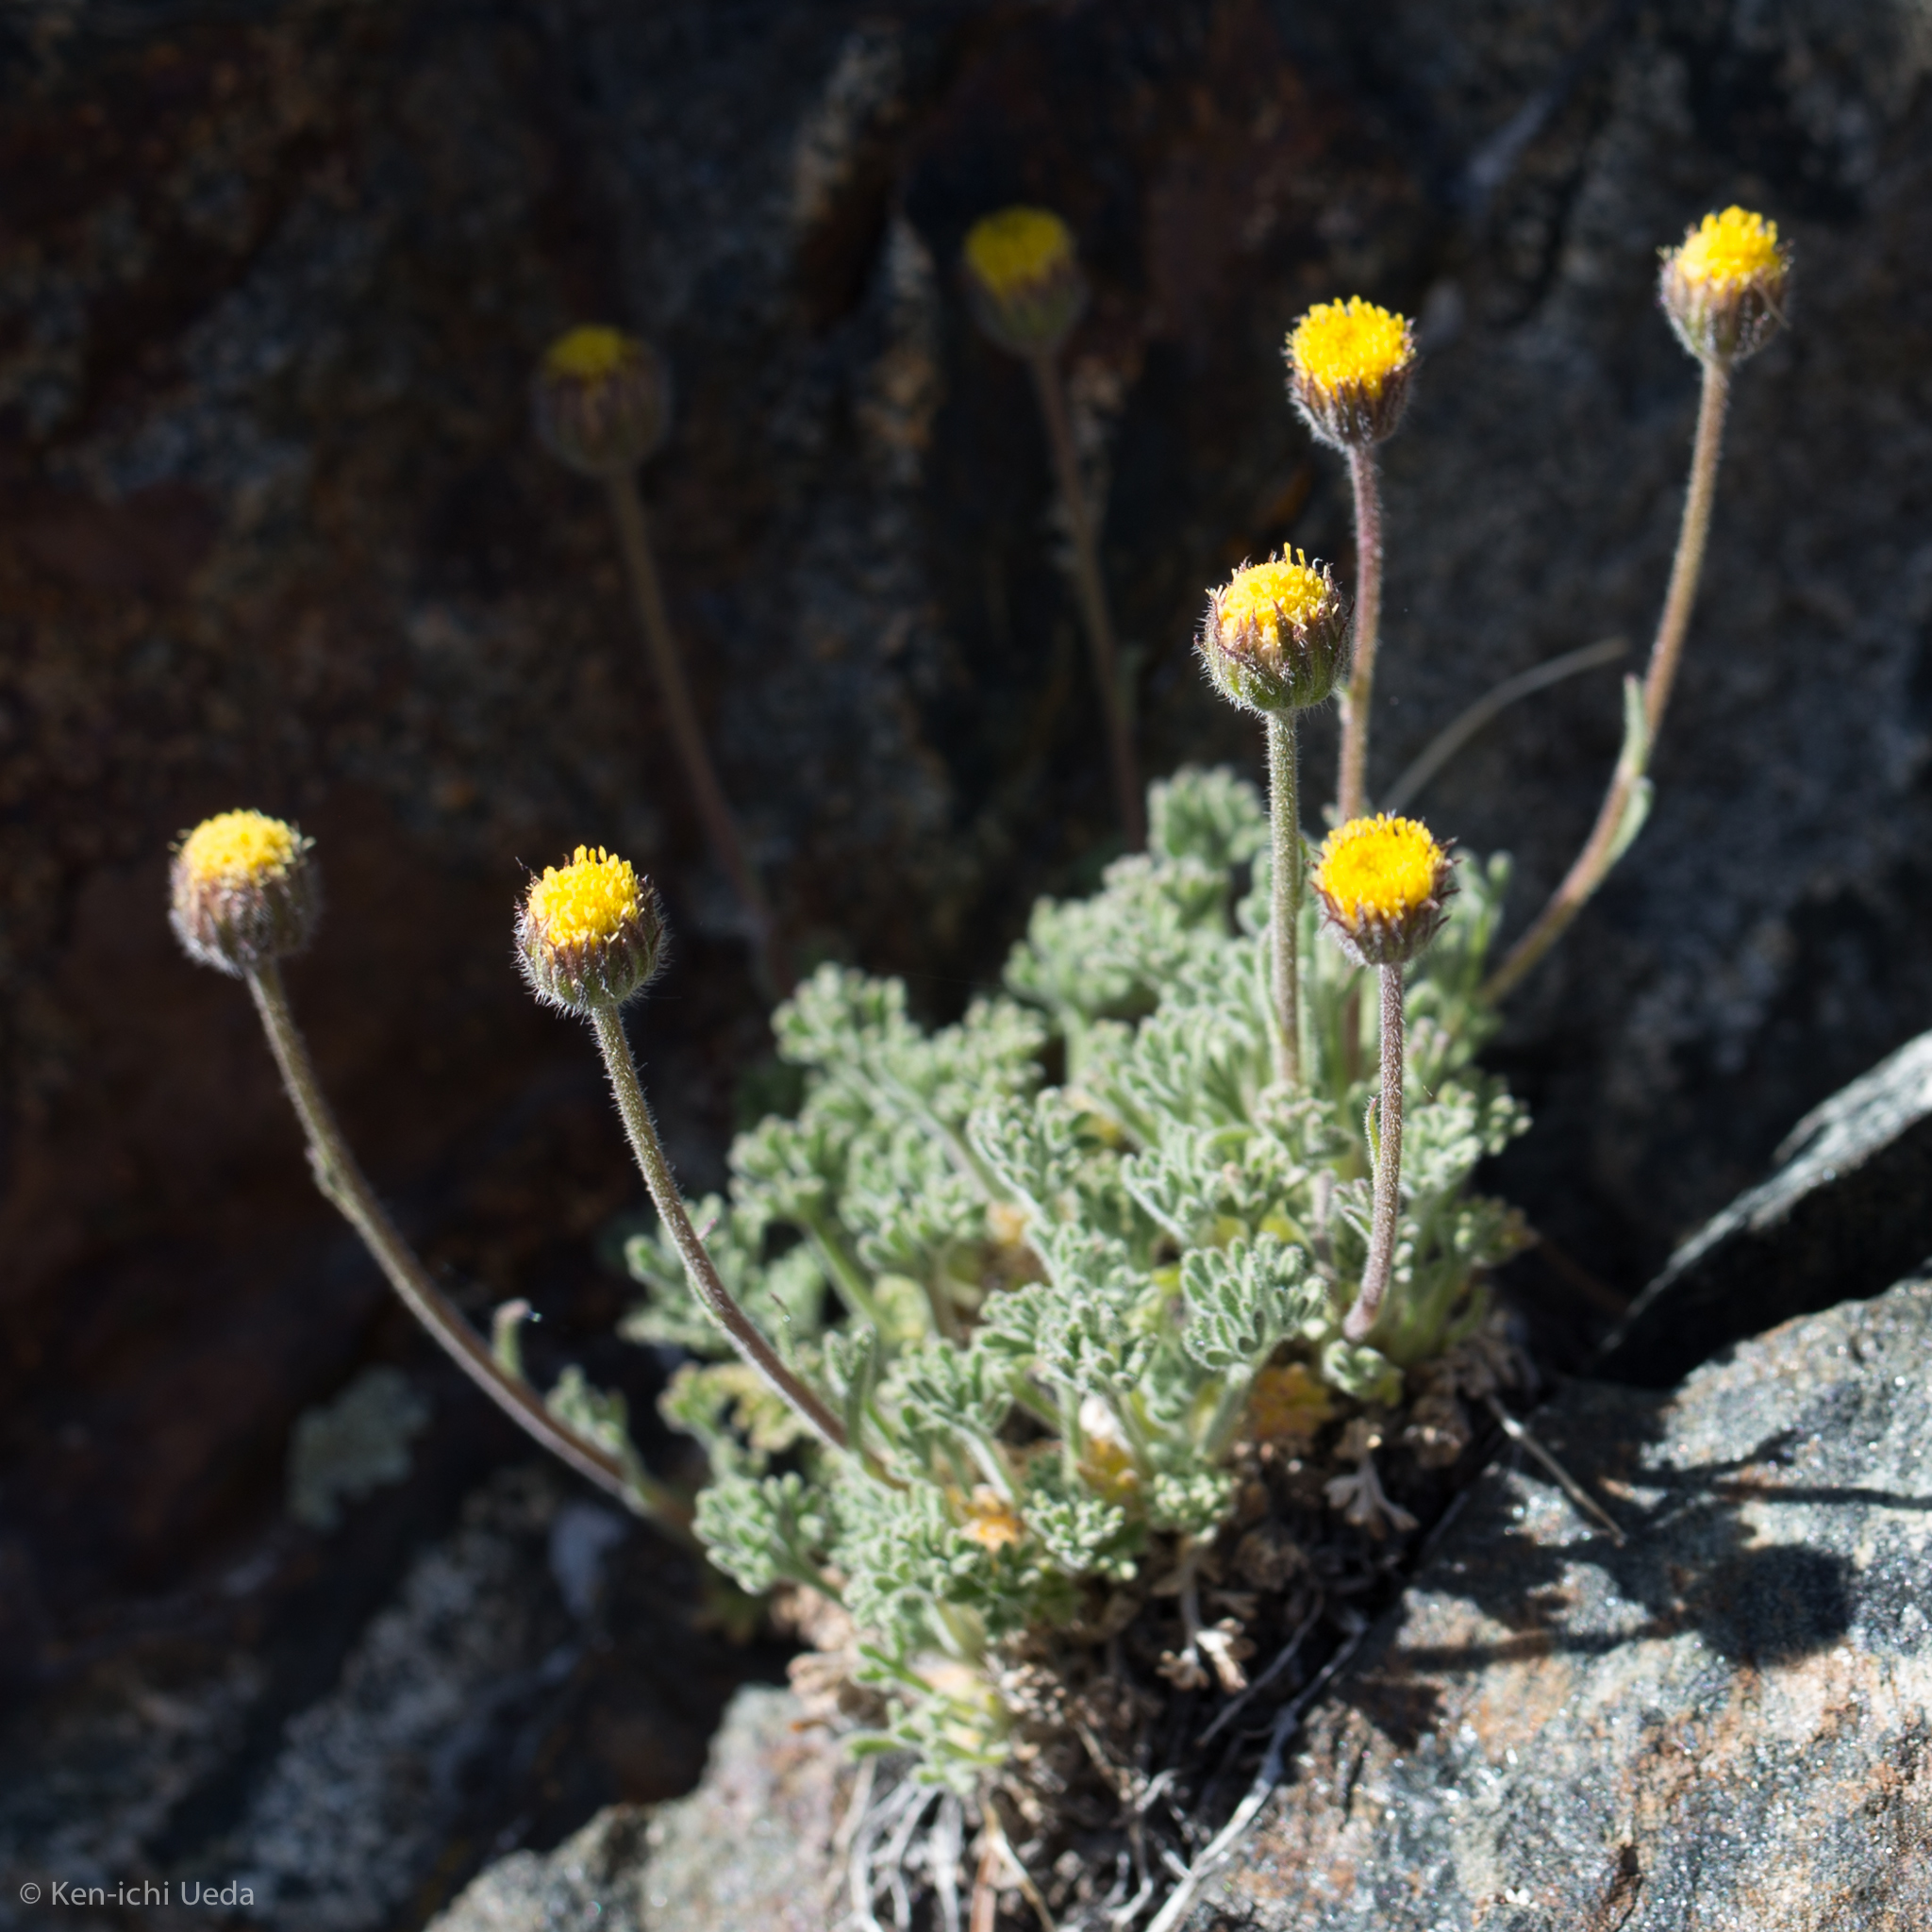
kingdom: Plantae
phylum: Tracheophyta
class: Magnoliopsida
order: Asterales
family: Asteraceae
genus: Erigeron
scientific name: Erigeron compositus
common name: Dwarf mountain fleabane
